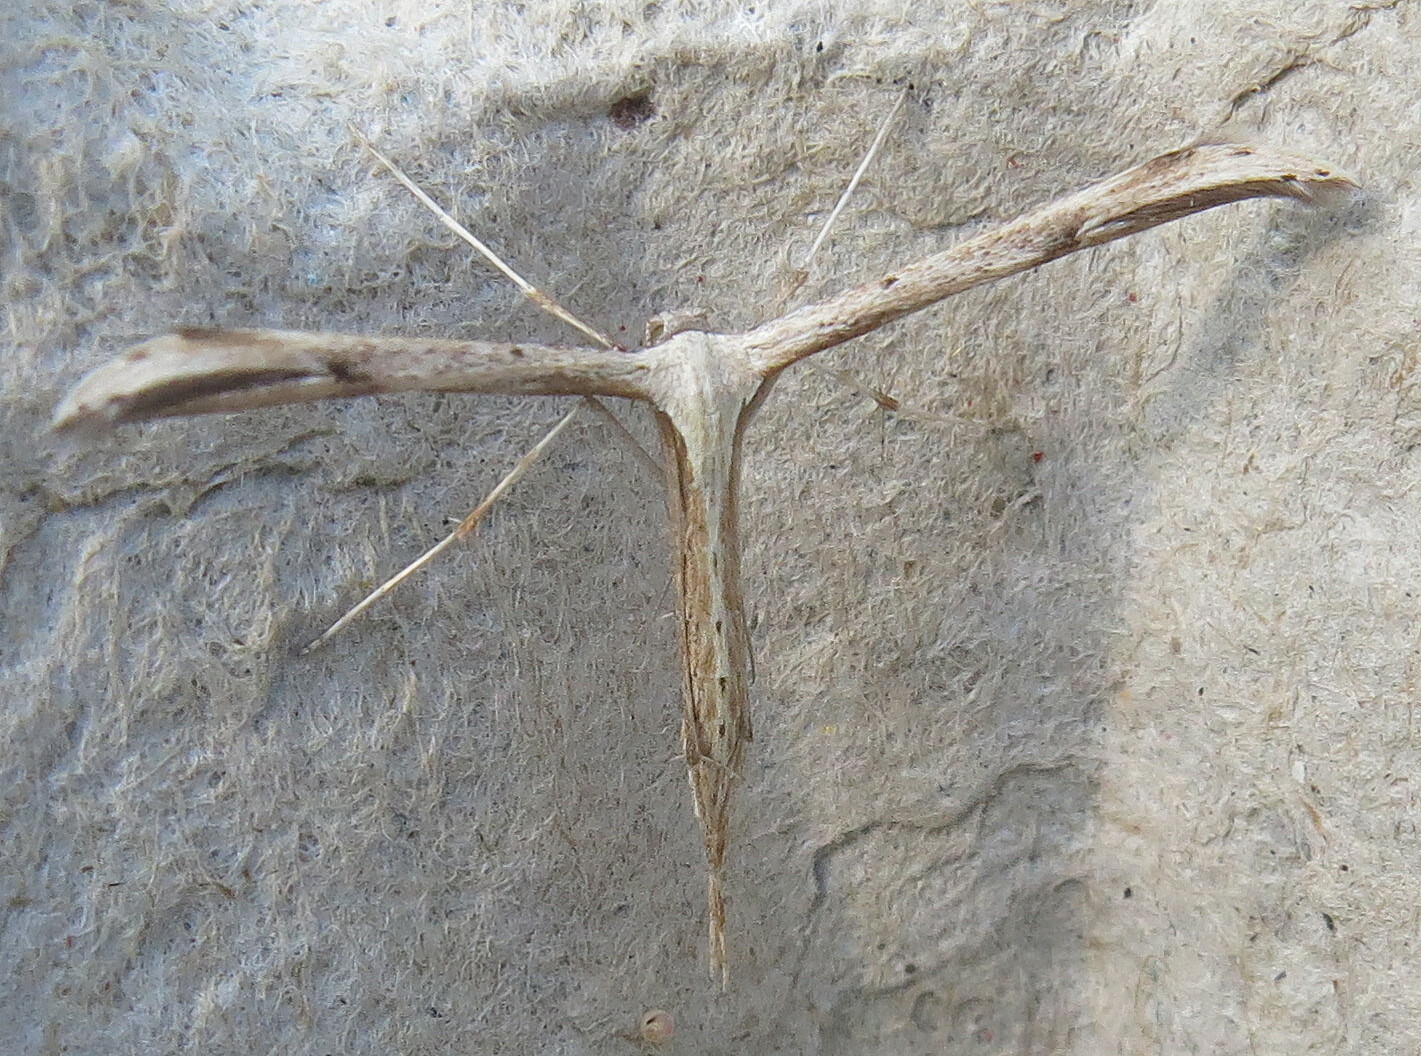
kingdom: Animalia
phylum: Arthropoda
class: Insecta
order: Lepidoptera
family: Pterophoridae
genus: Emmelina
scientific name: Emmelina monodactyla
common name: Common plume
